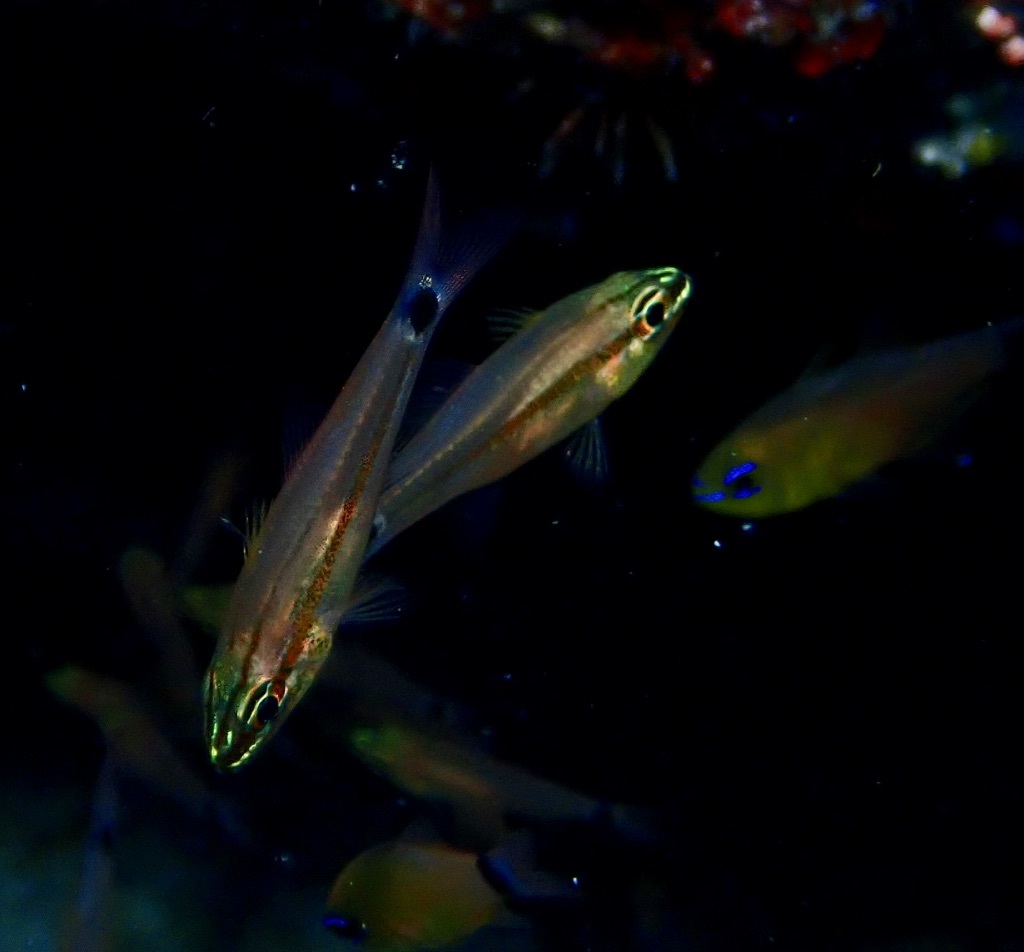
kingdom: Animalia
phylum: Chordata
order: Perciformes
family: Apogonidae
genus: Ostorhinchus
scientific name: Ostorhinchus selas
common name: Meteor cardinalfish
